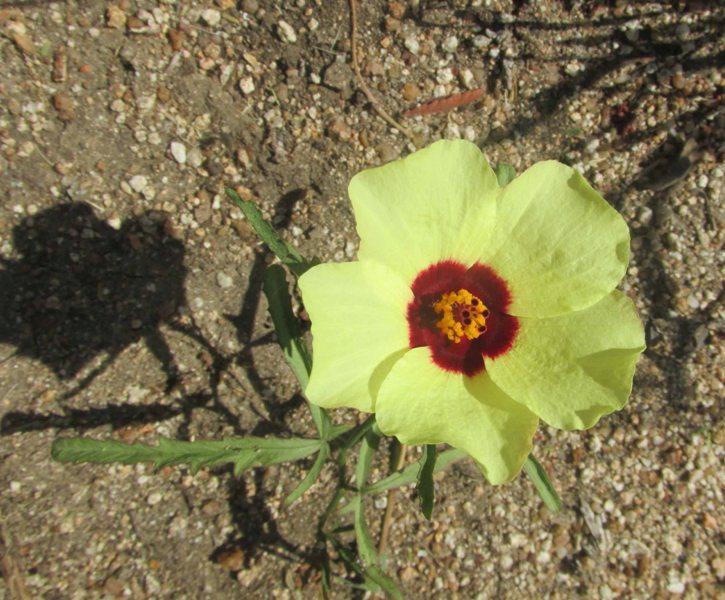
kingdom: Plantae
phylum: Tracheophyta
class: Magnoliopsida
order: Malvales
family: Malvaceae
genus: Hibiscus
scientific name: Hibiscus trionum
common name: Bladder ketmia
